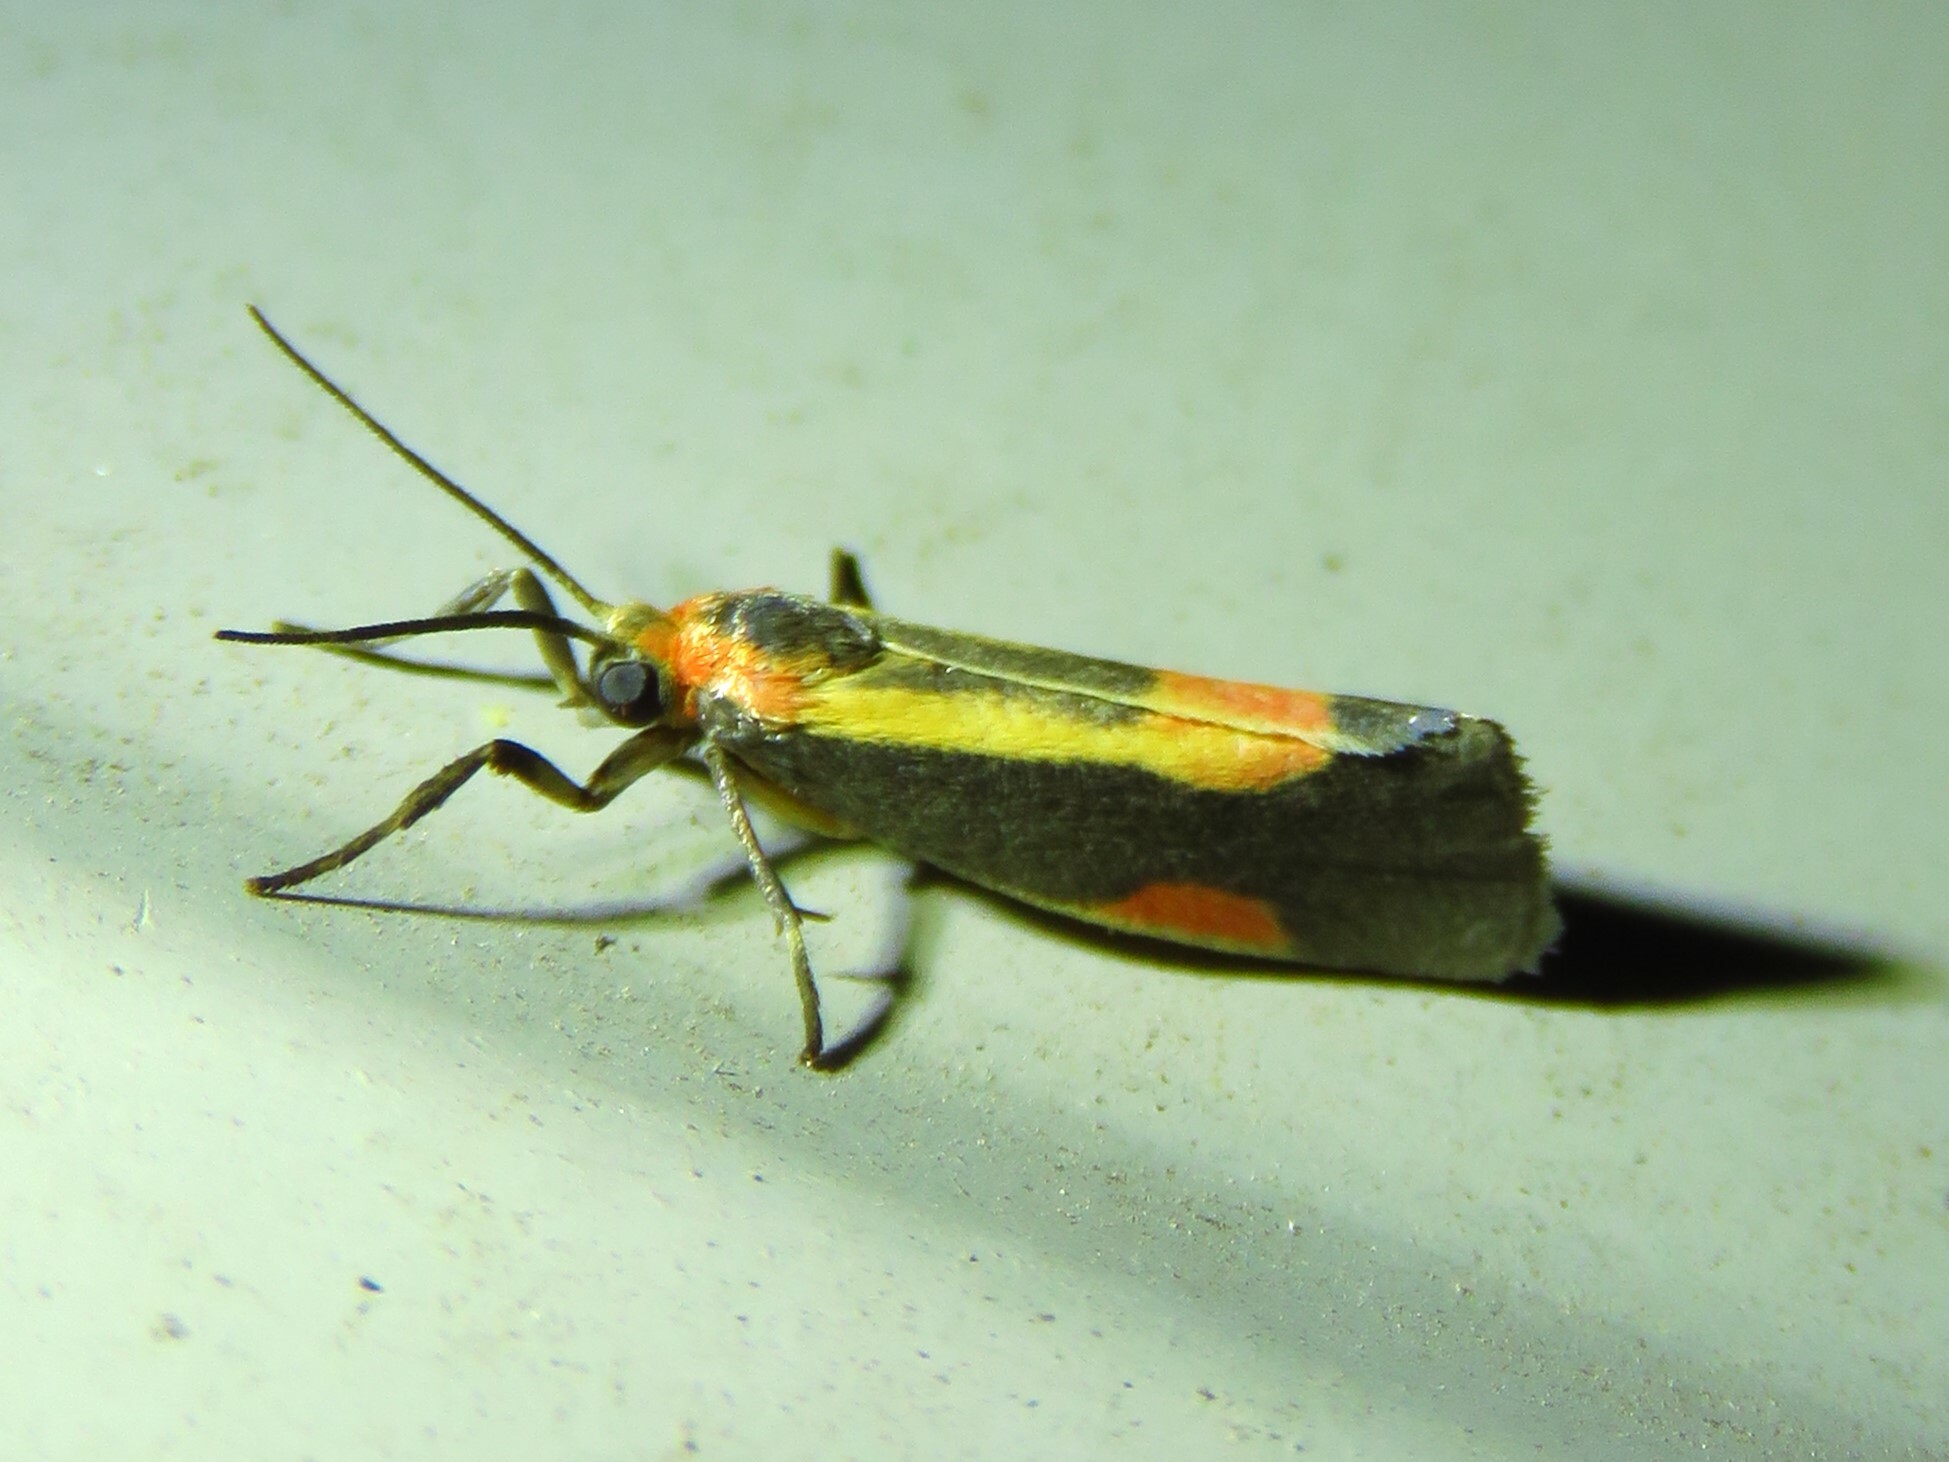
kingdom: Animalia
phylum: Arthropoda
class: Insecta
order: Lepidoptera
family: Erebidae
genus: Cisthene
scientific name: Cisthene packardii
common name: Packard's lichen moth
